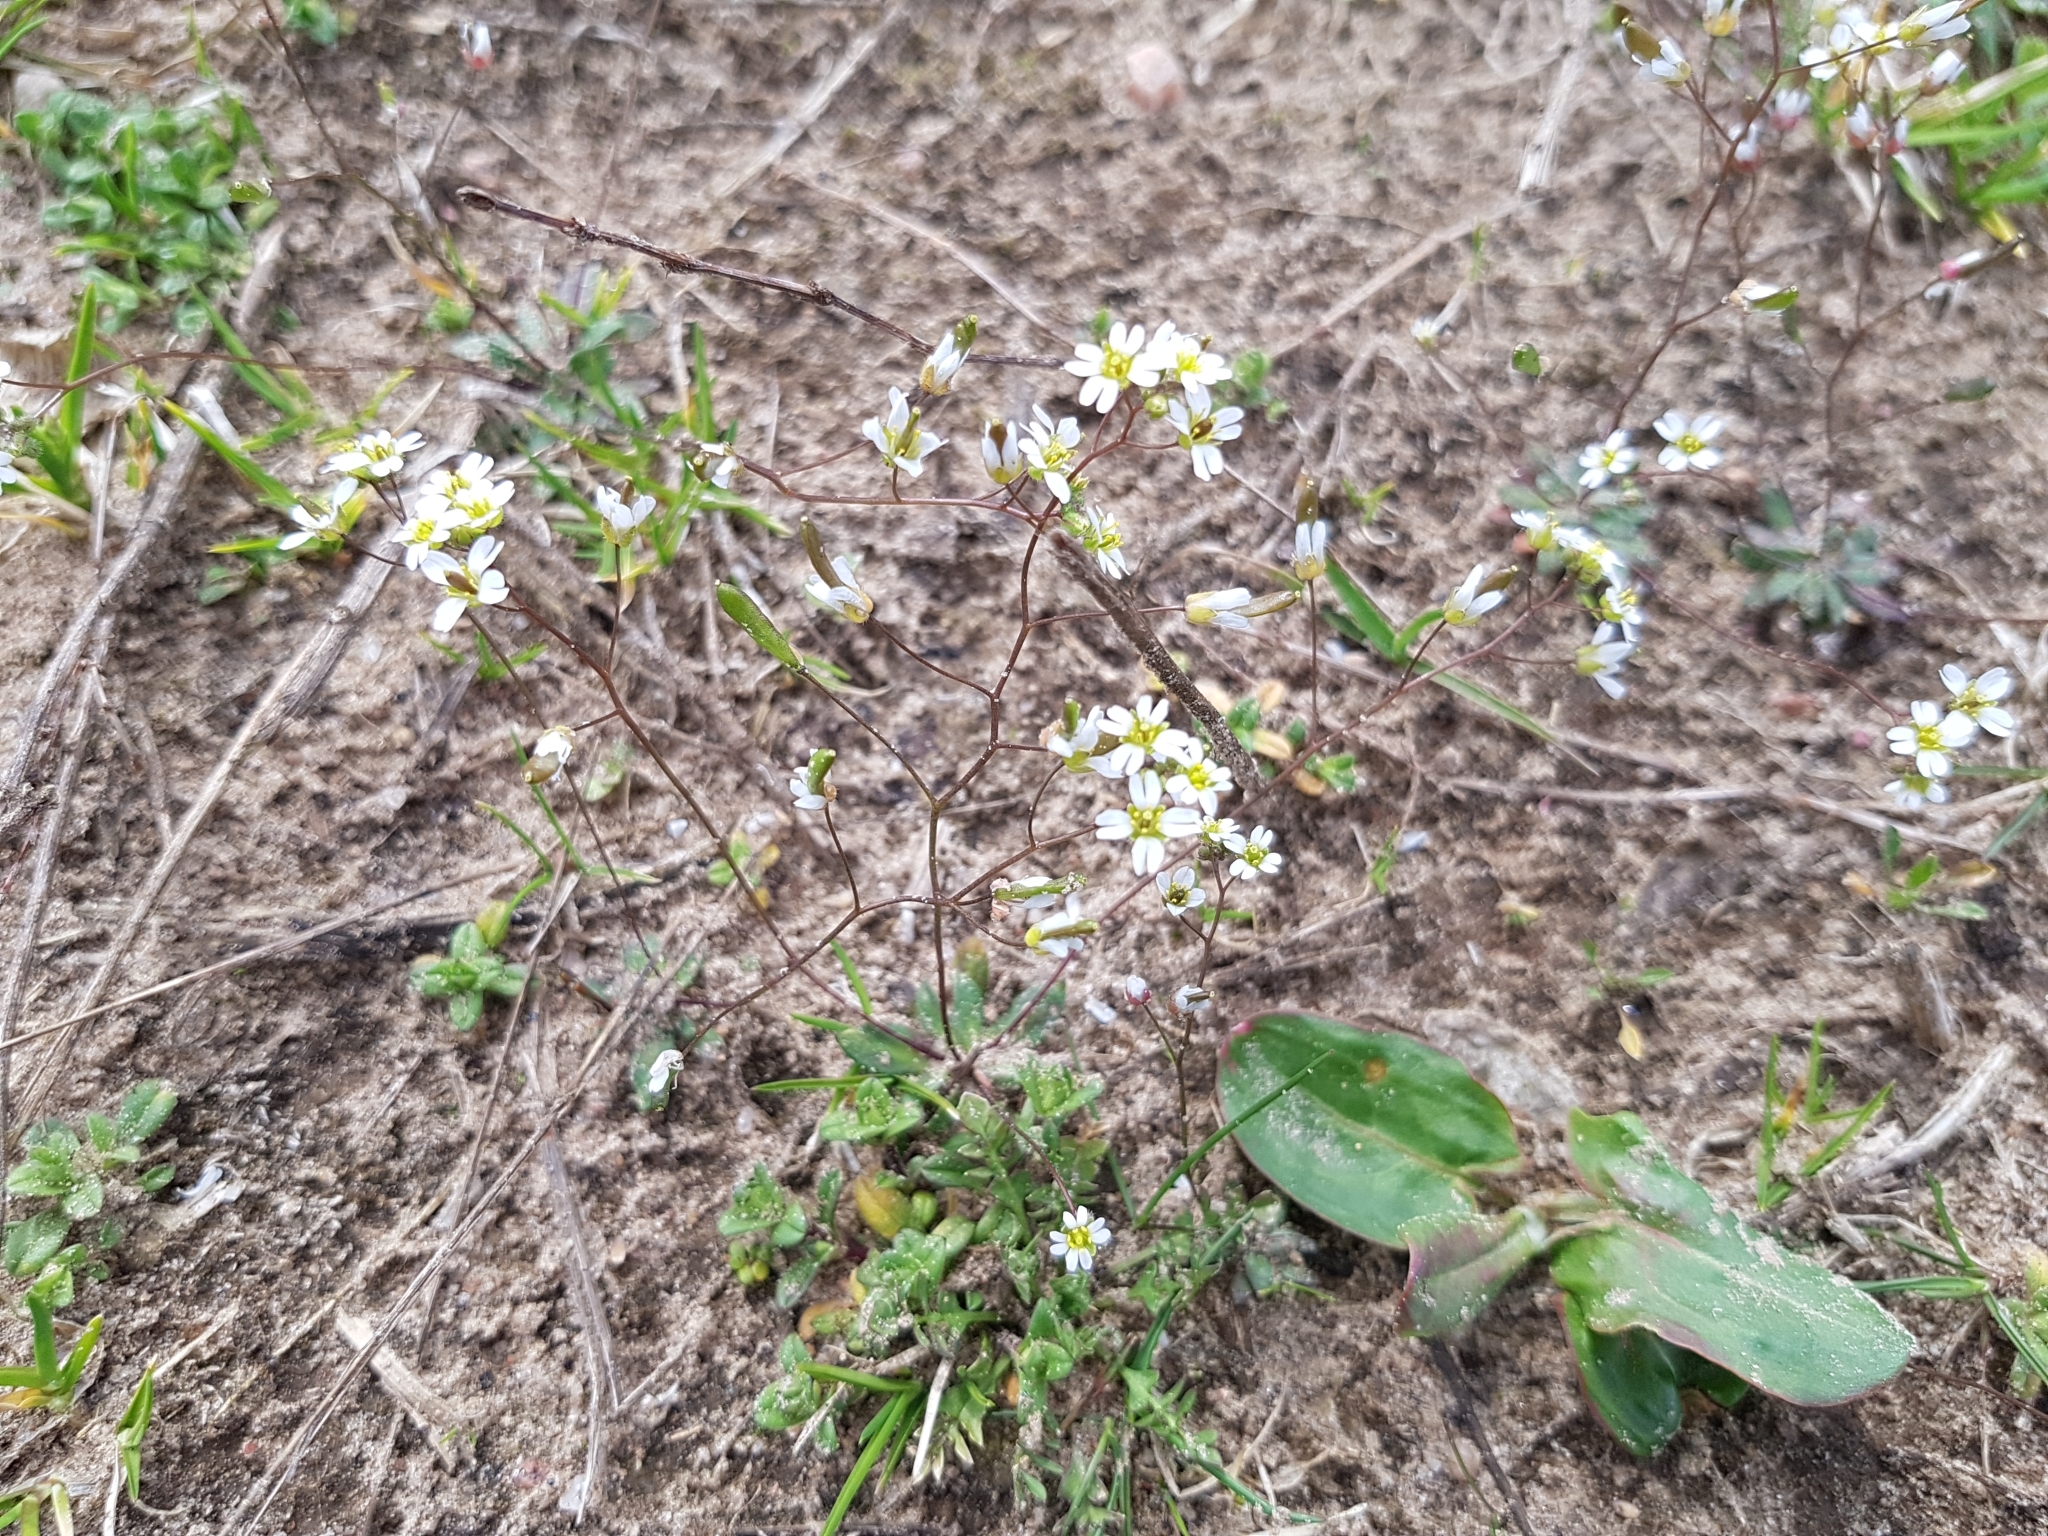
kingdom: Plantae
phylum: Tracheophyta
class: Magnoliopsida
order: Brassicales
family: Brassicaceae
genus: Draba
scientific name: Draba verna
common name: Spring draba
